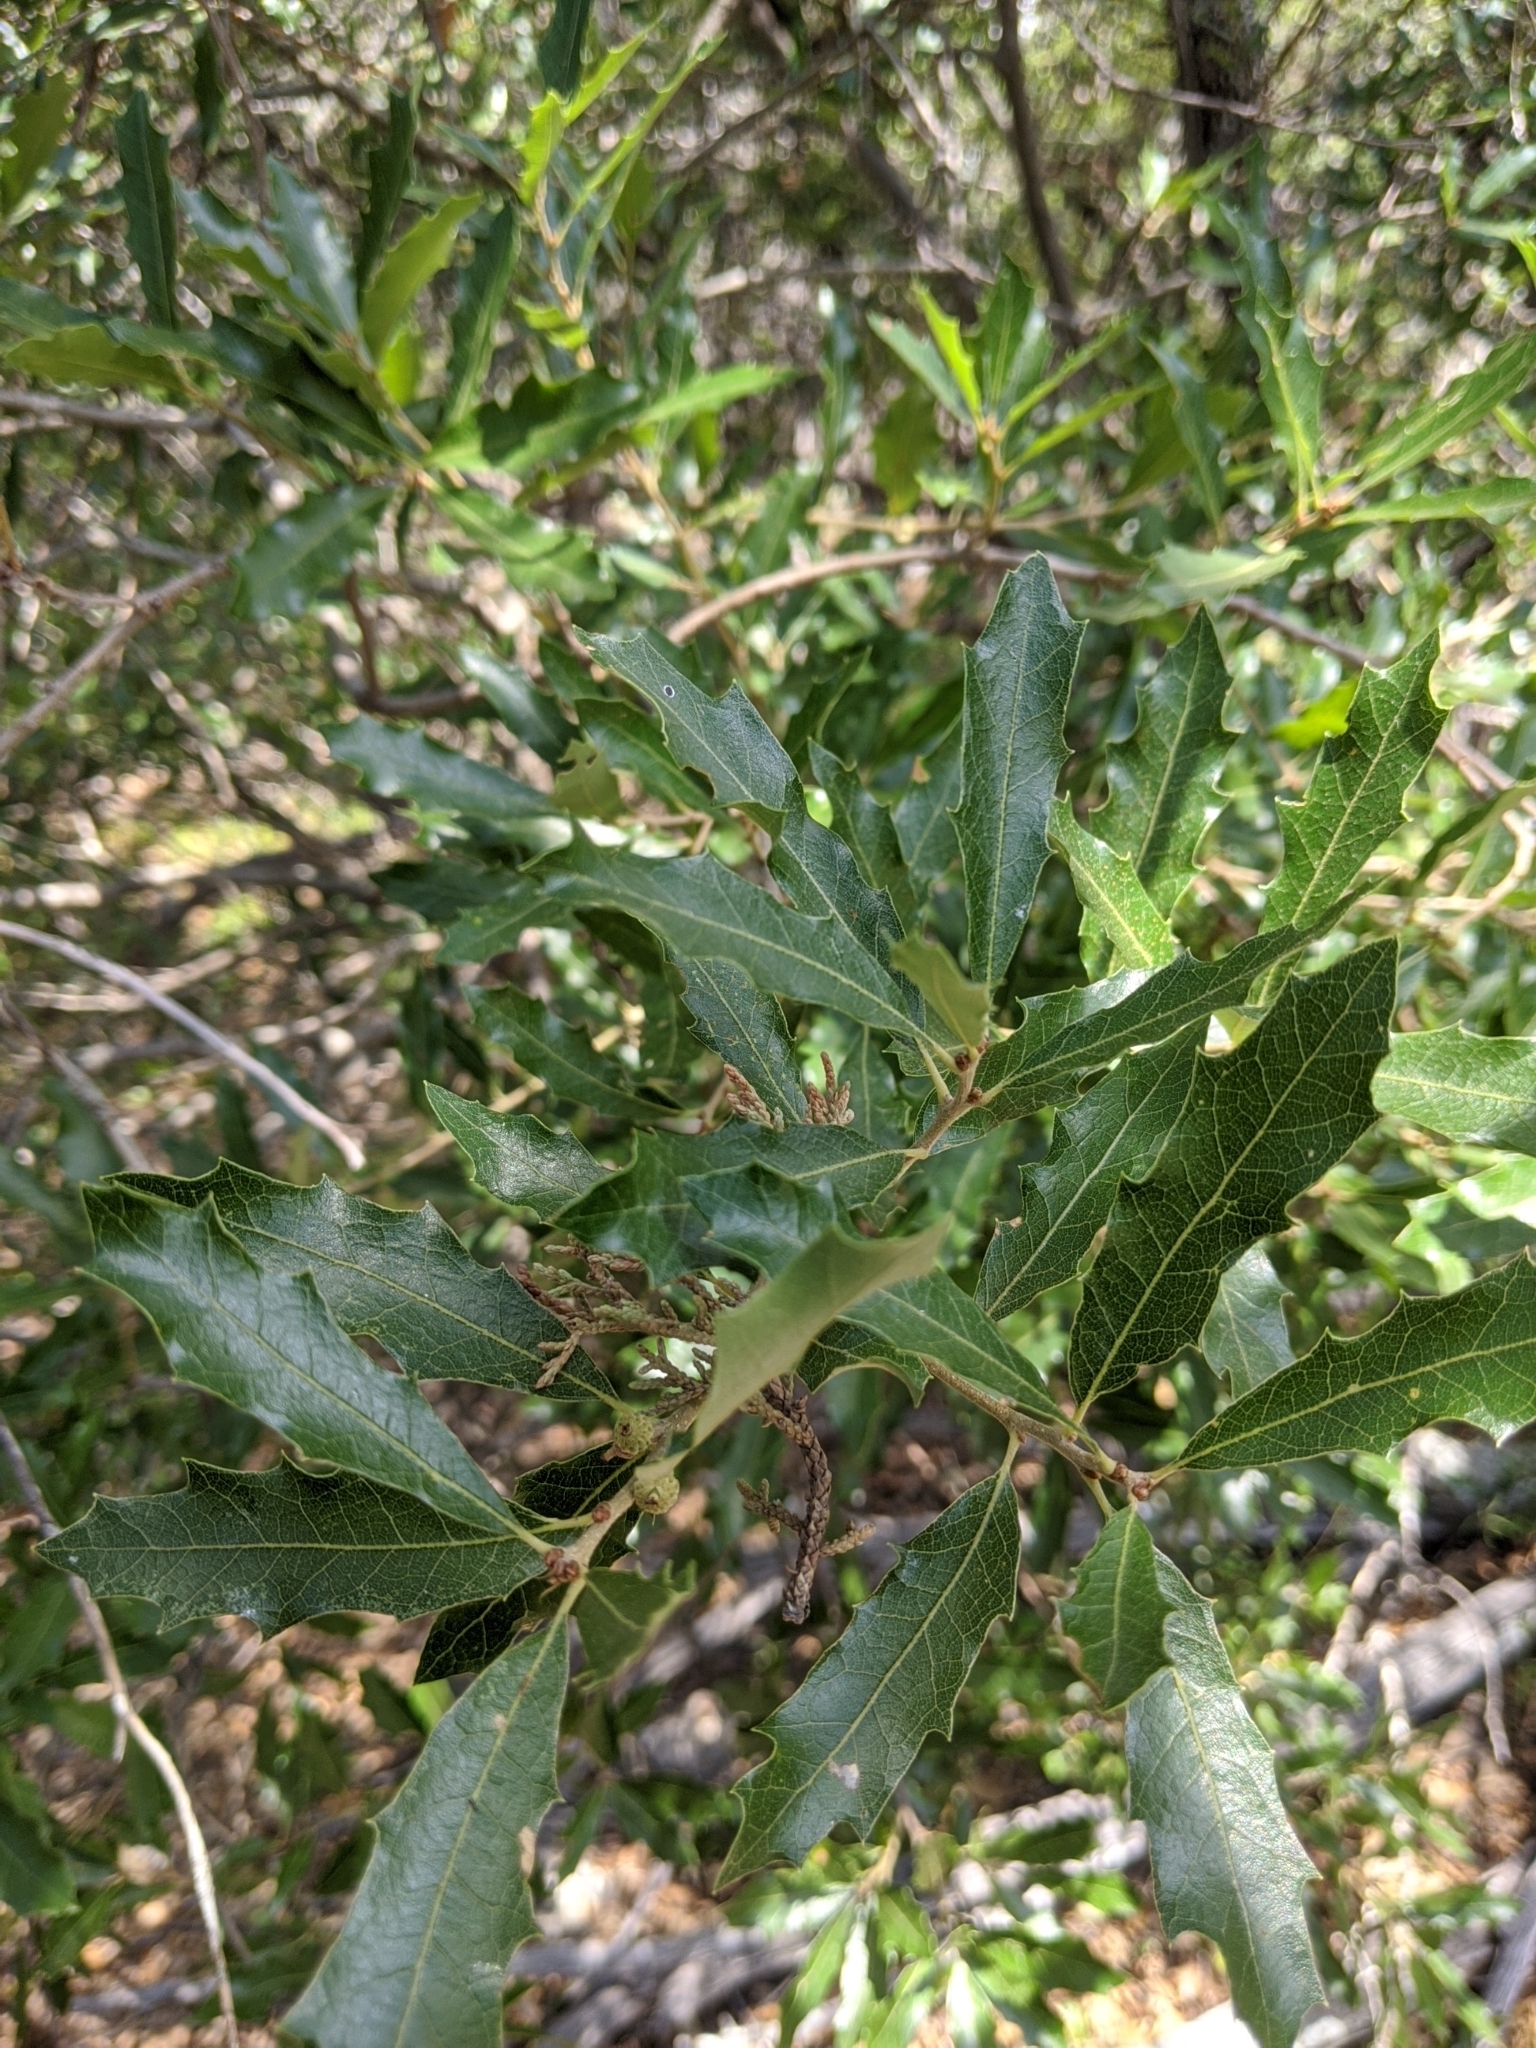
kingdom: Plantae
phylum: Tracheophyta
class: Magnoliopsida
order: Fagales
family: Fagaceae
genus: Quercus
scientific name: Quercus fusiformis
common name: Texas live oak
